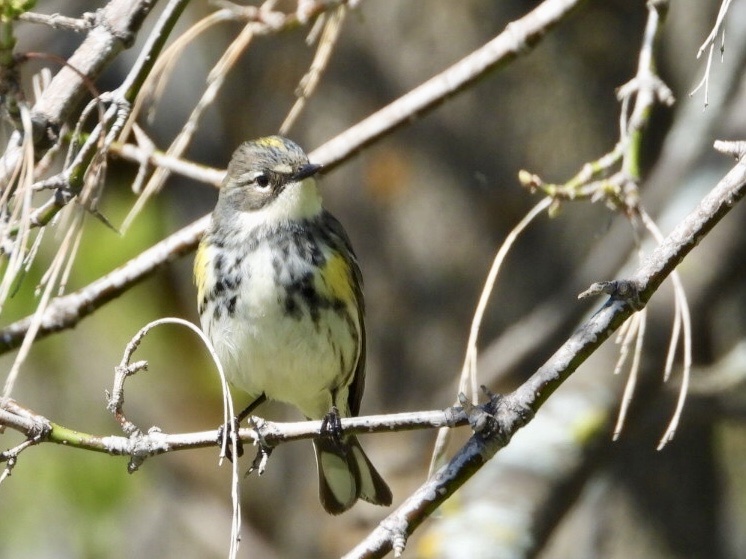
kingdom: Animalia
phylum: Chordata
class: Aves
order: Passeriformes
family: Parulidae
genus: Setophaga
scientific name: Setophaga coronata
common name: Myrtle warbler
